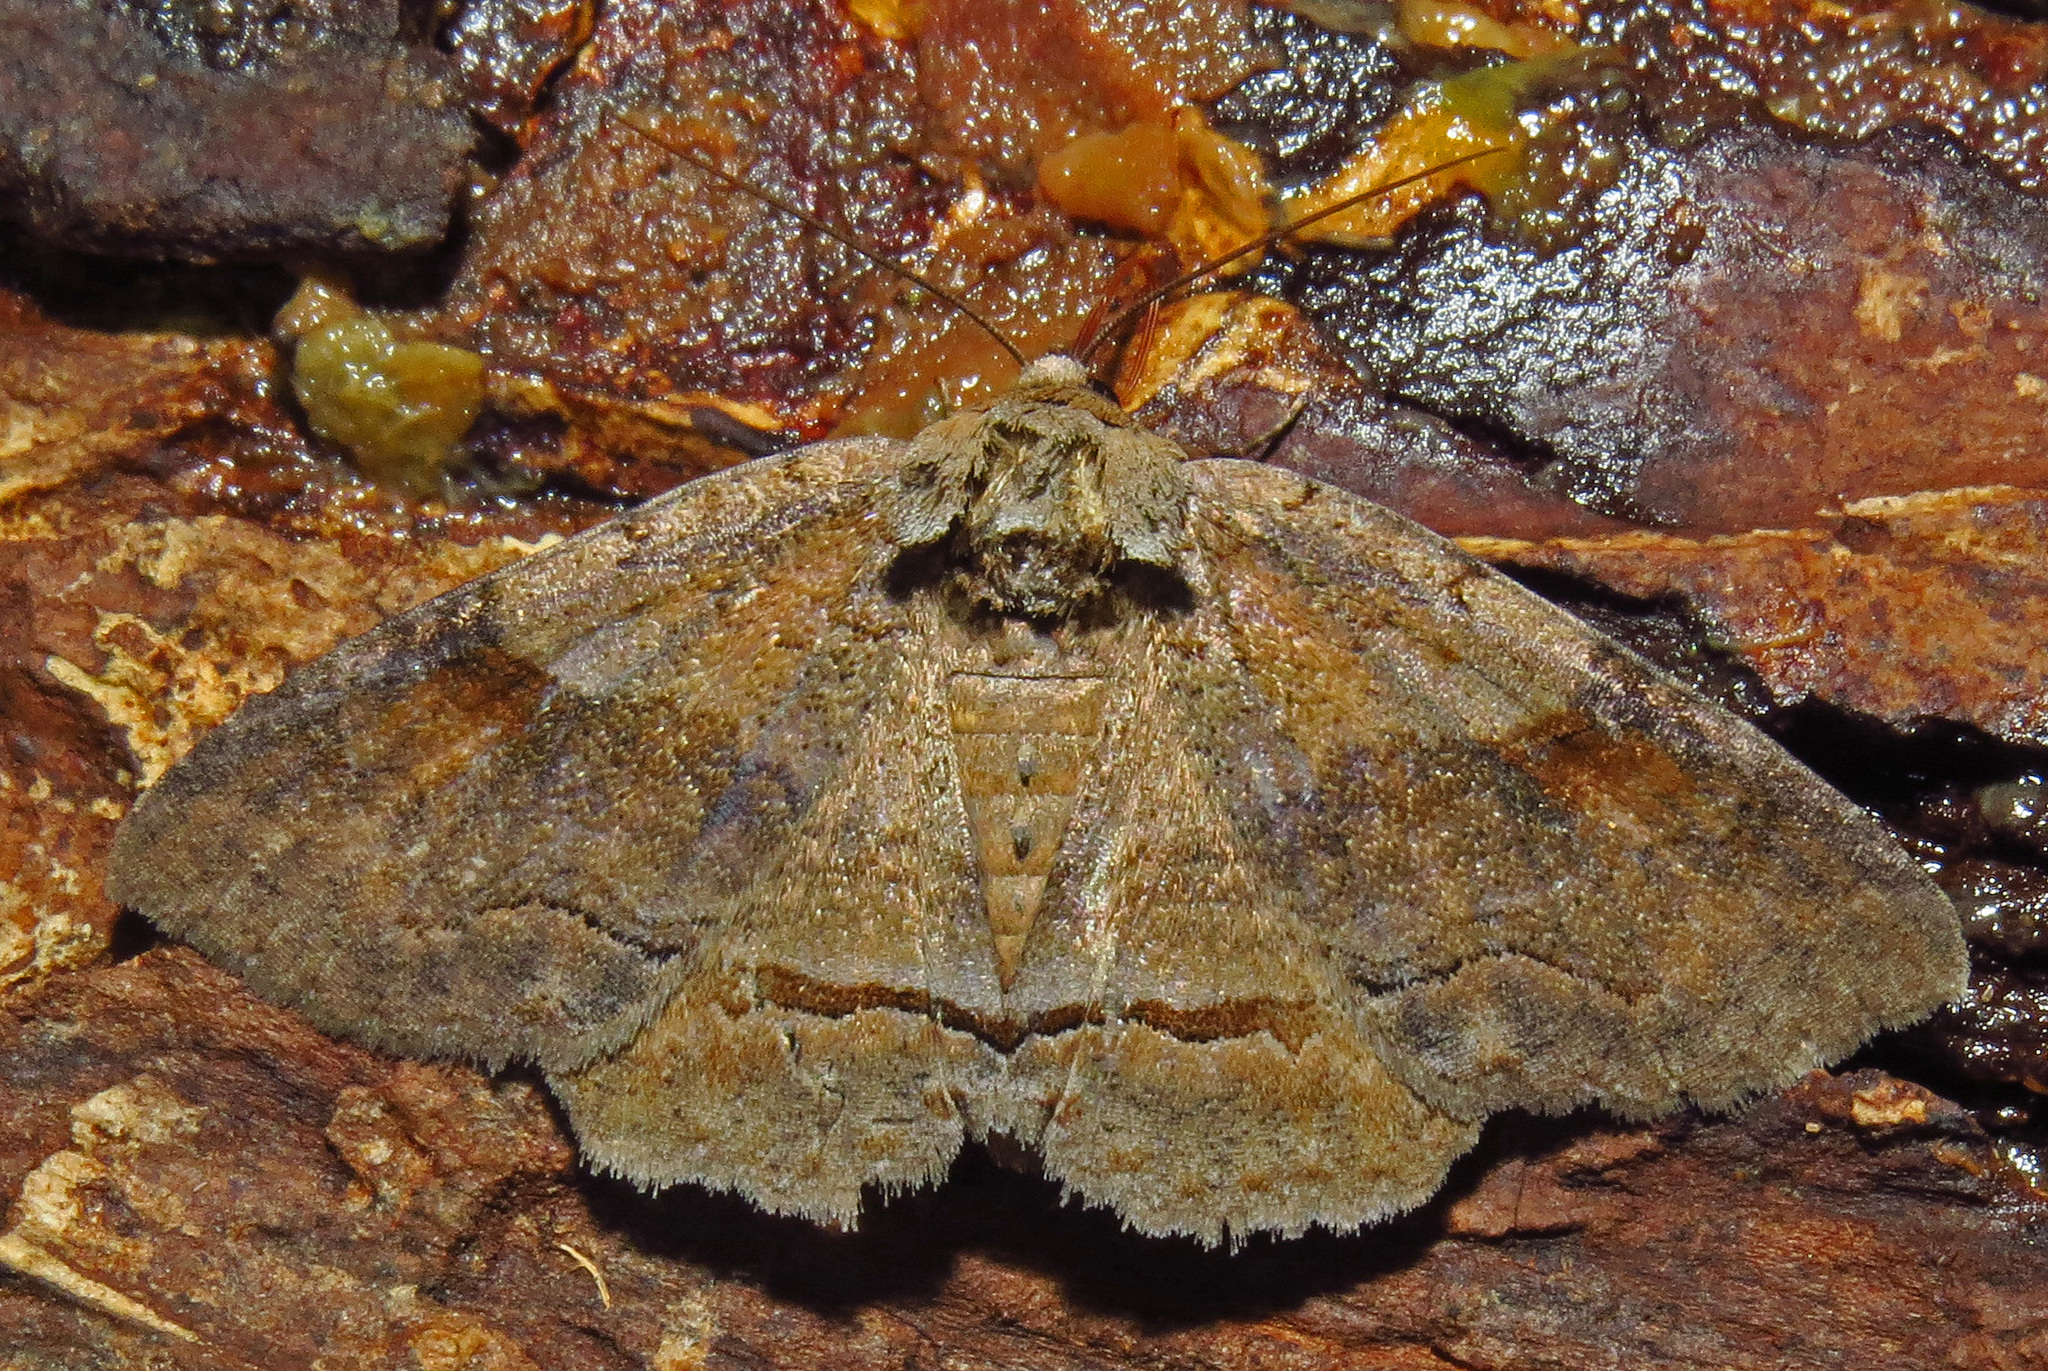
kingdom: Animalia
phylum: Arthropoda
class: Insecta
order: Lepidoptera
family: Erebidae
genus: Zale
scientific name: Zale obliqua
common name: Oblique zale moth
